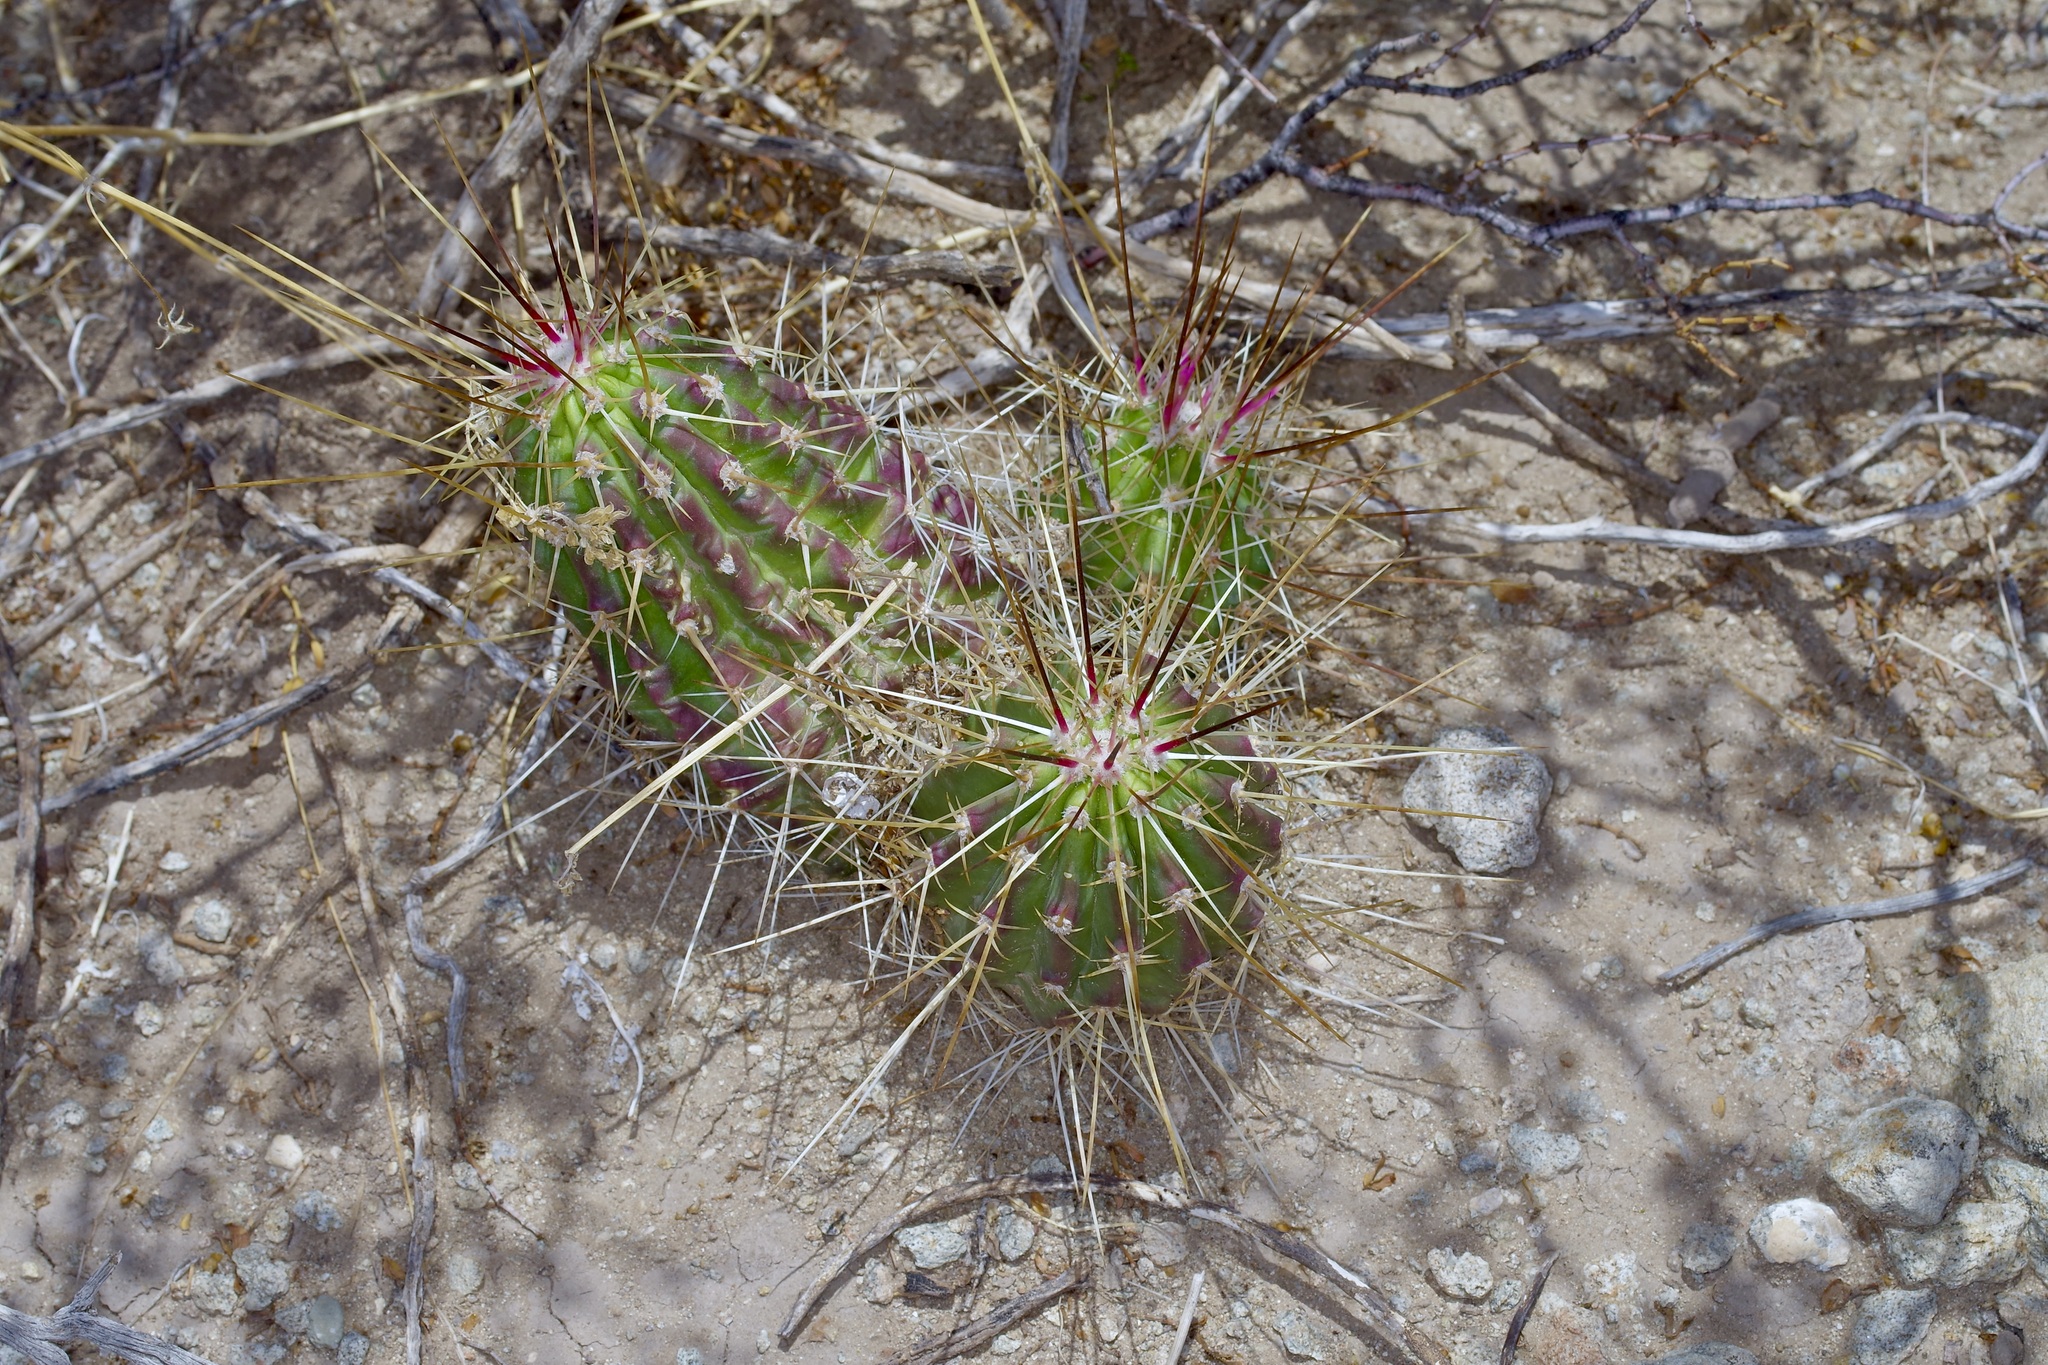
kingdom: Plantae
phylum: Tracheophyta
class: Magnoliopsida
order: Caryophyllales
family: Cactaceae
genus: Echinocereus
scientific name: Echinocereus stramineus
